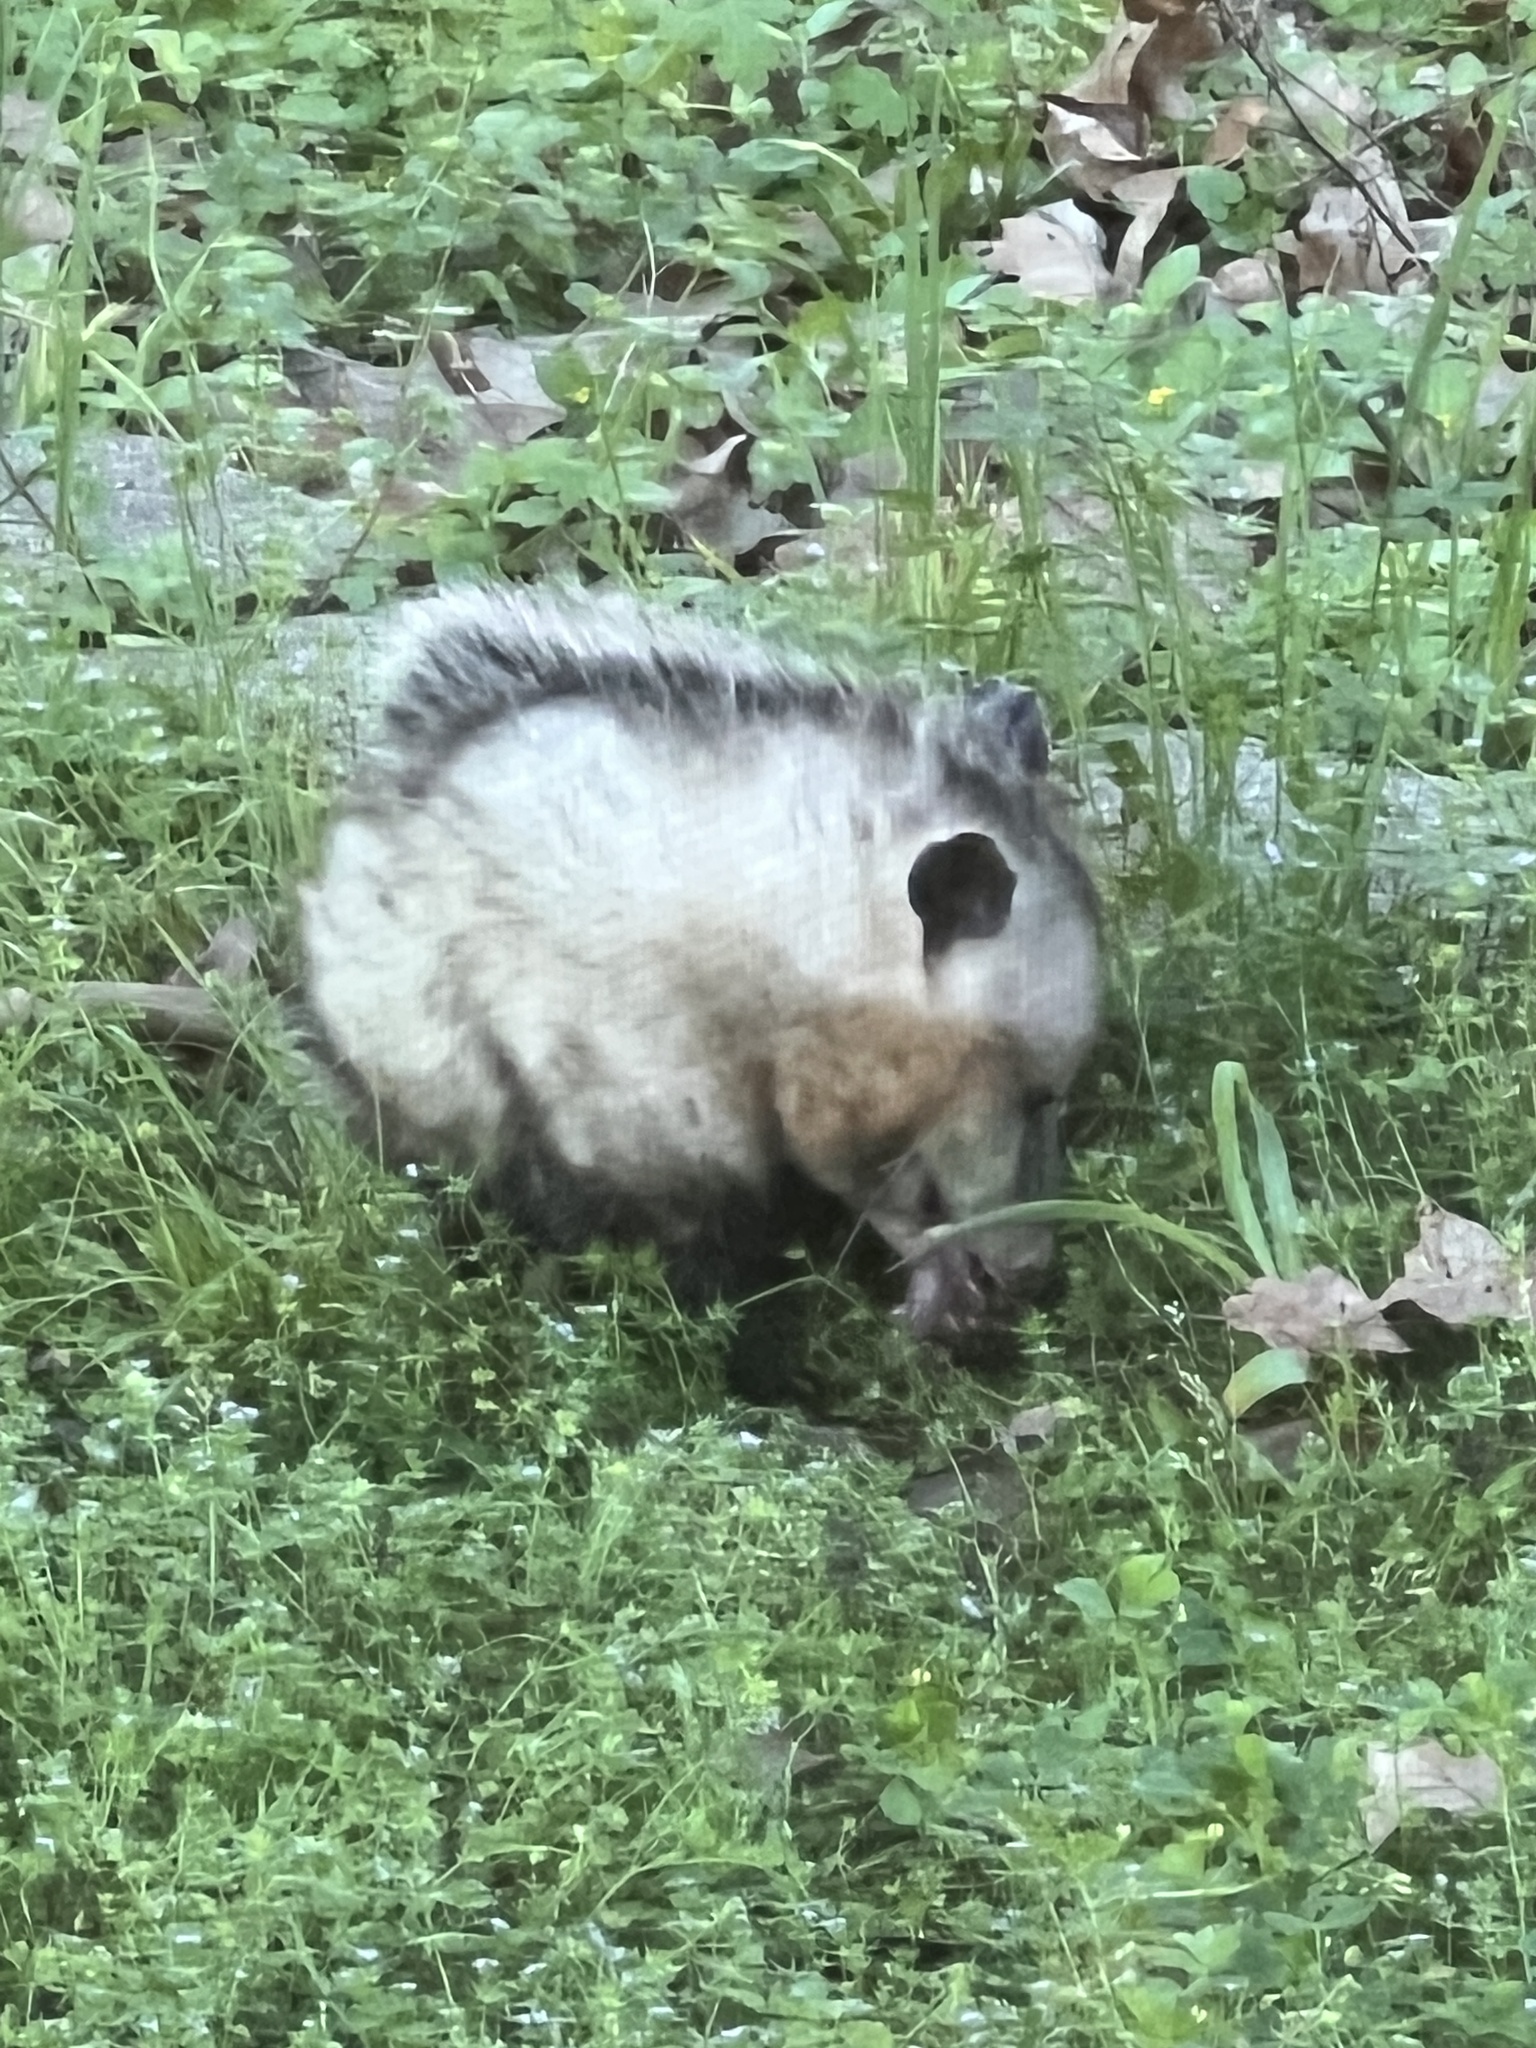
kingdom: Animalia
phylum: Chordata
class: Mammalia
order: Didelphimorphia
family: Didelphidae
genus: Didelphis
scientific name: Didelphis virginiana
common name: Virginia opossum
